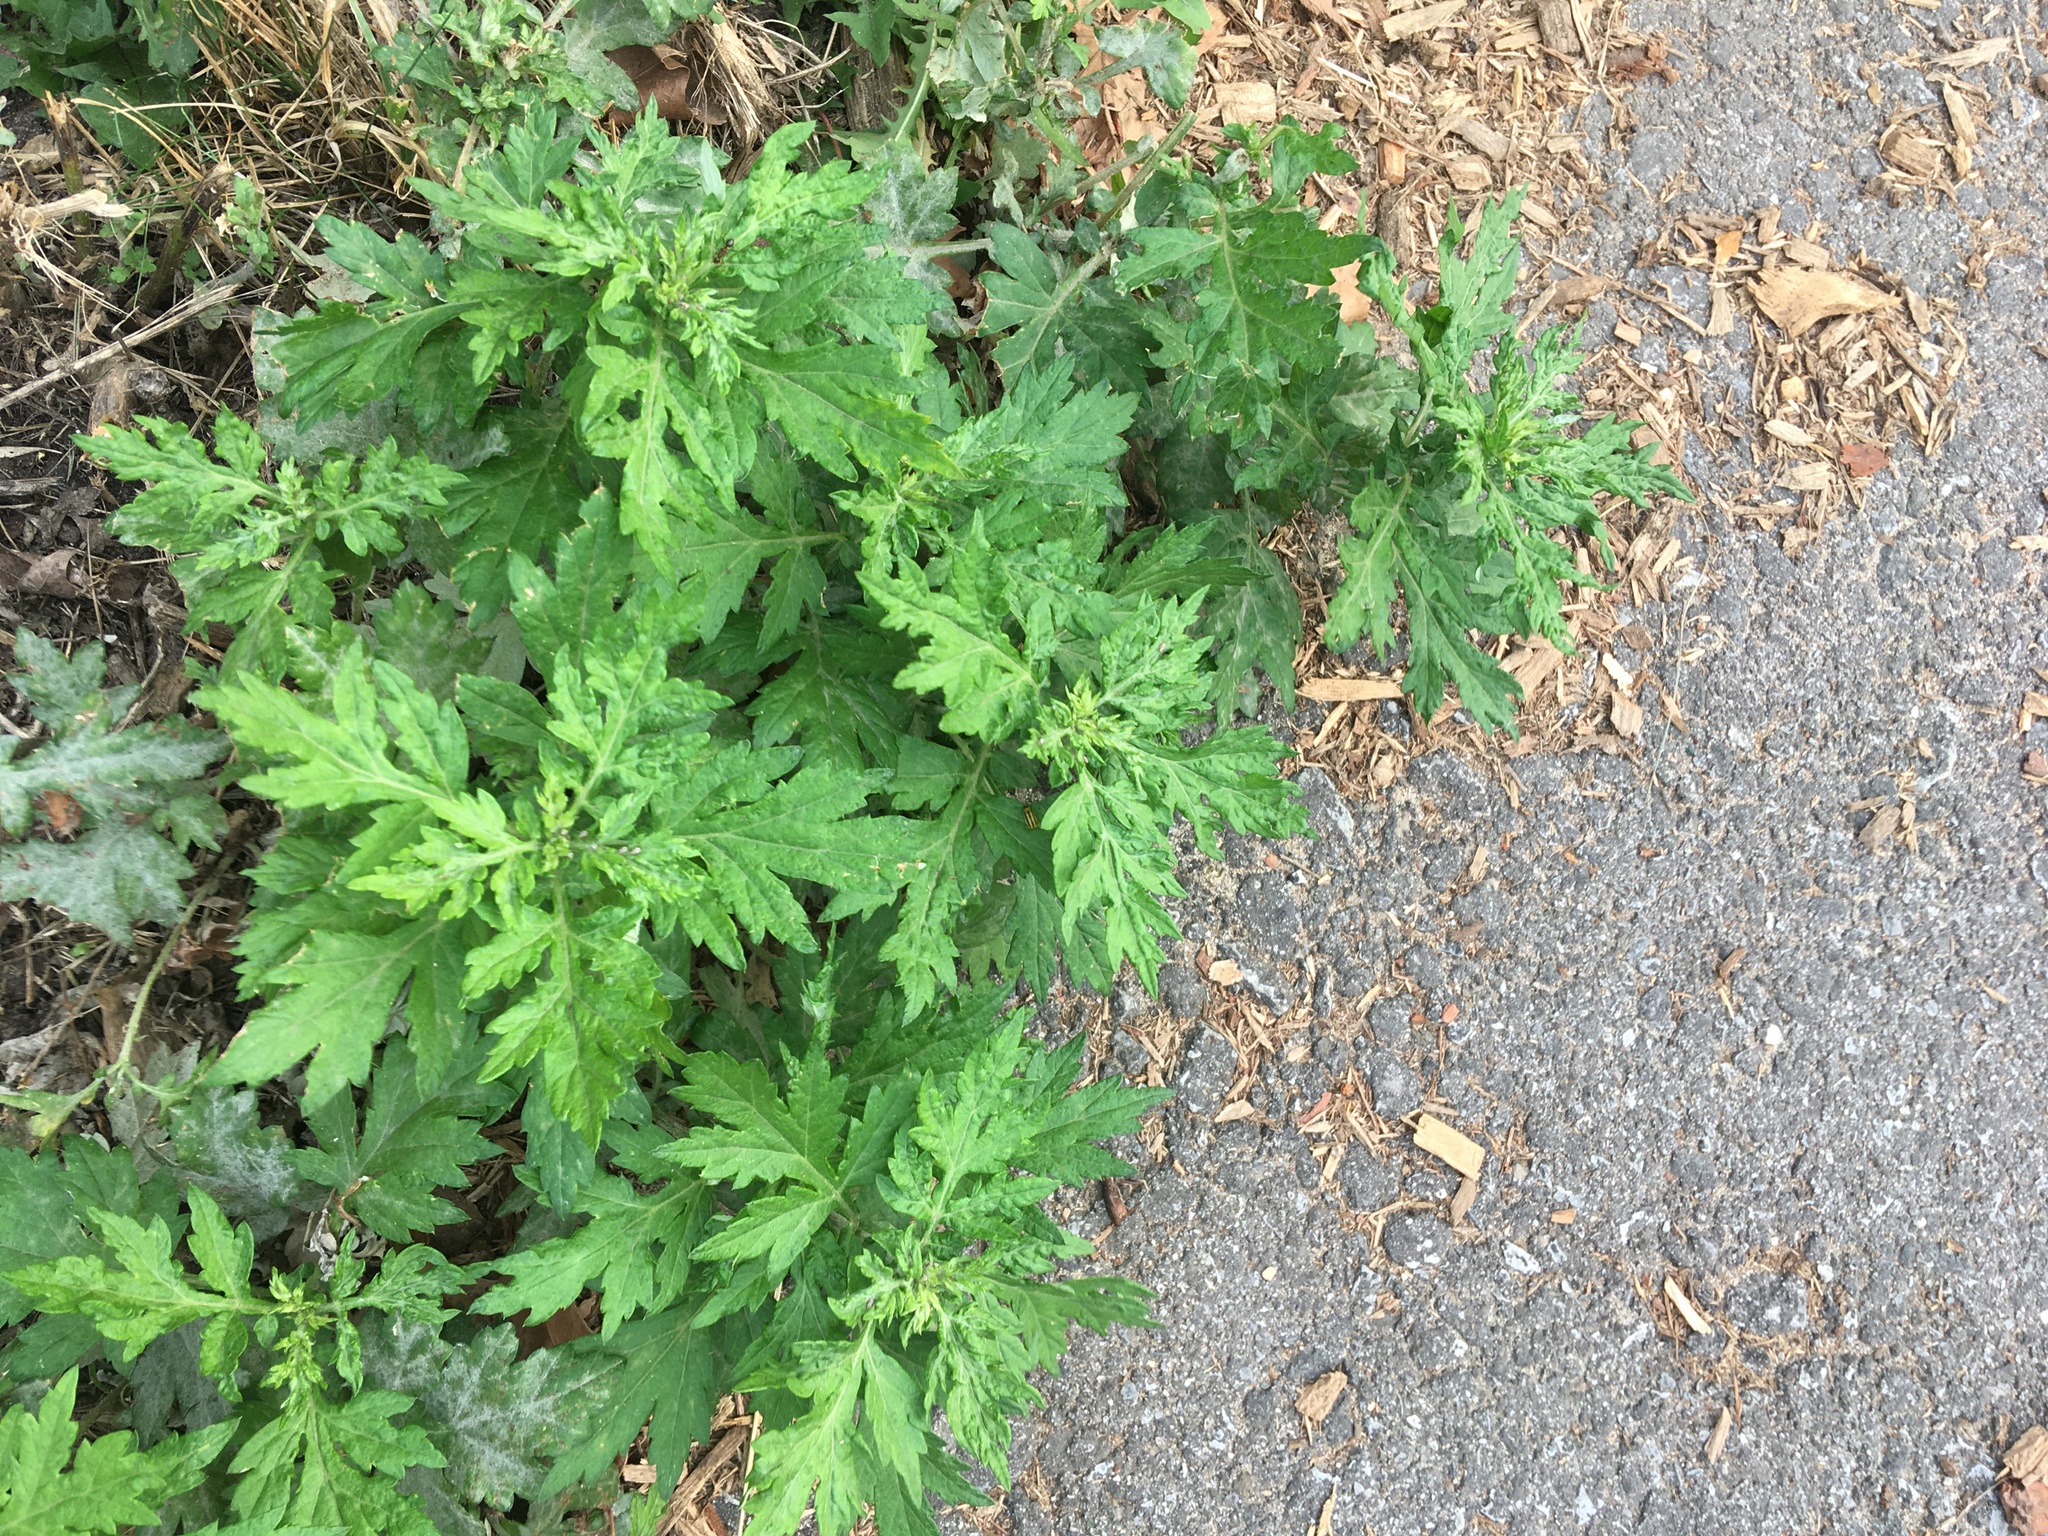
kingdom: Plantae
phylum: Tracheophyta
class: Magnoliopsida
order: Asterales
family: Asteraceae
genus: Artemisia
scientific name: Artemisia vulgaris
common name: Mugwort
